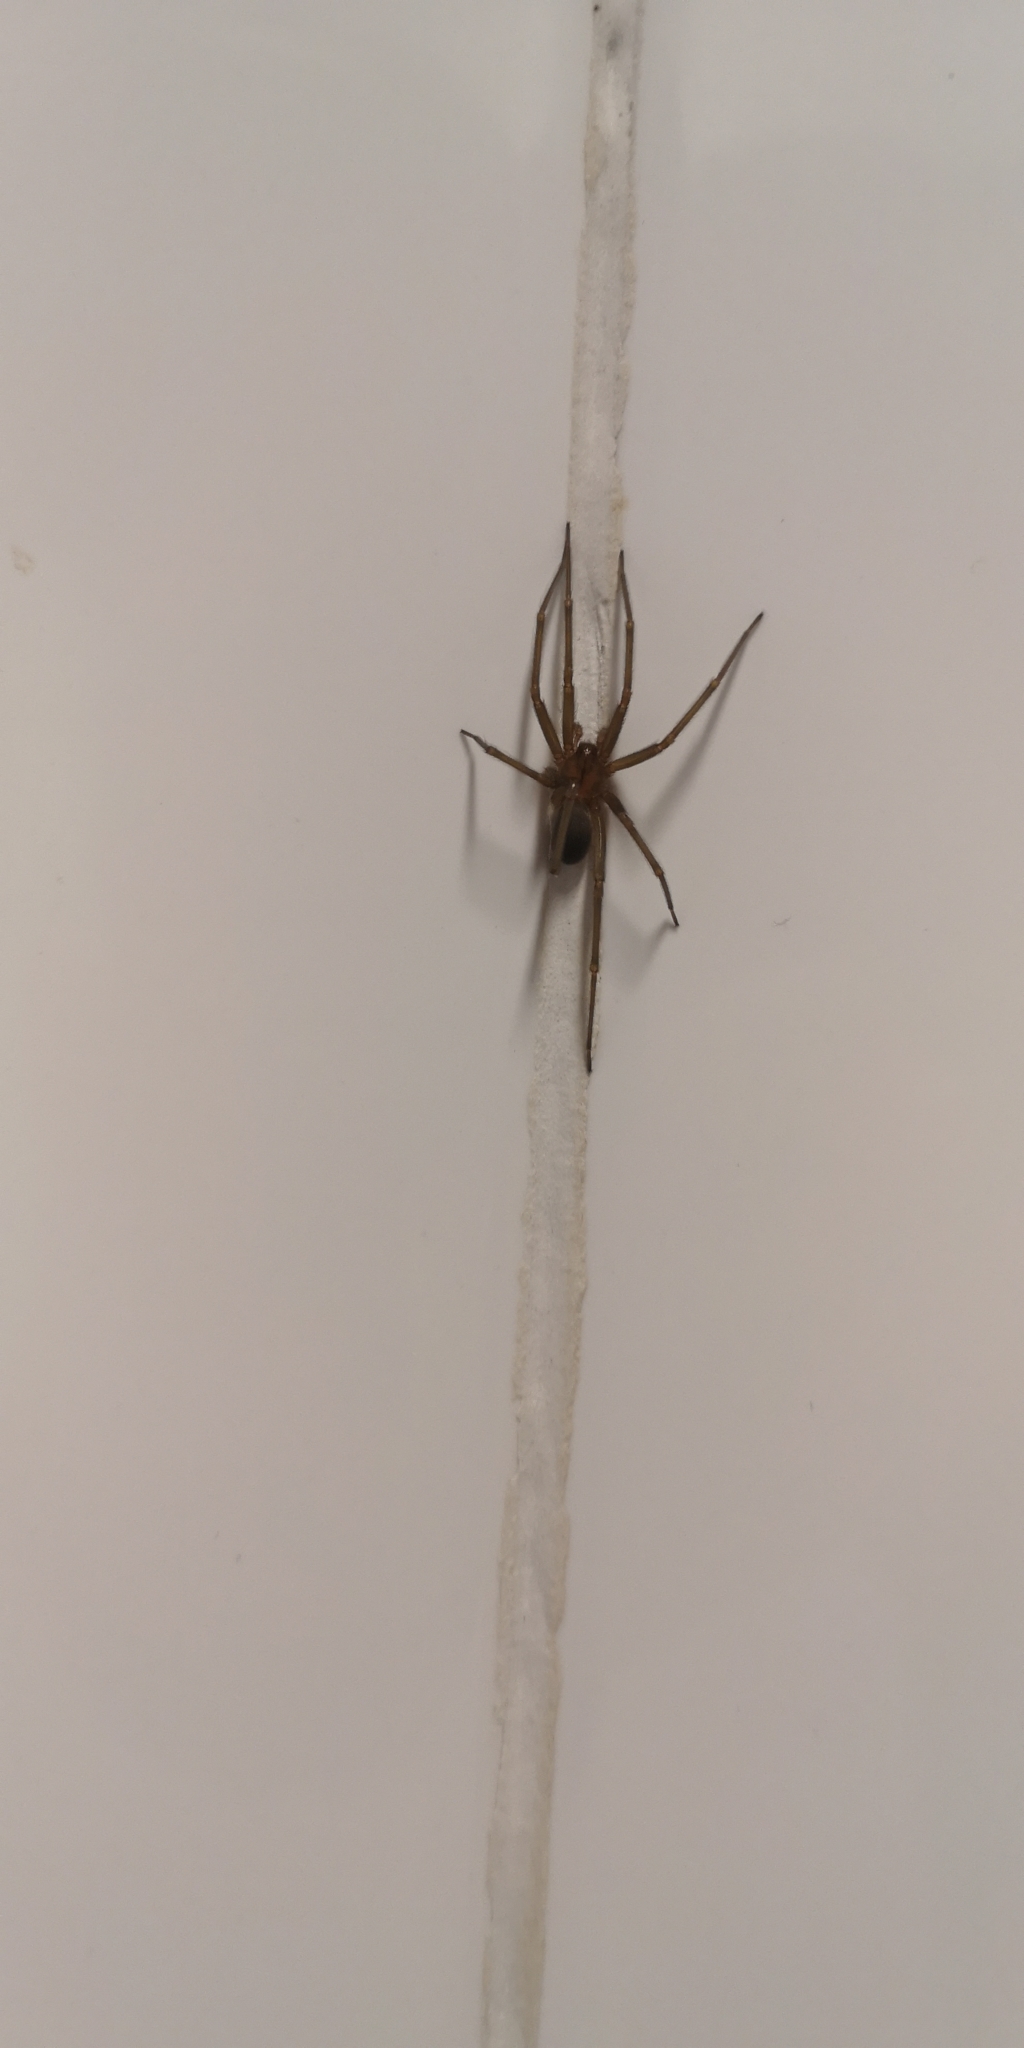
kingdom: Animalia
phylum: Arthropoda
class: Arachnida
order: Araneae
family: Sicariidae
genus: Loxosceles
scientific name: Loxosceles laeta
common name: Chilean recluse spider
